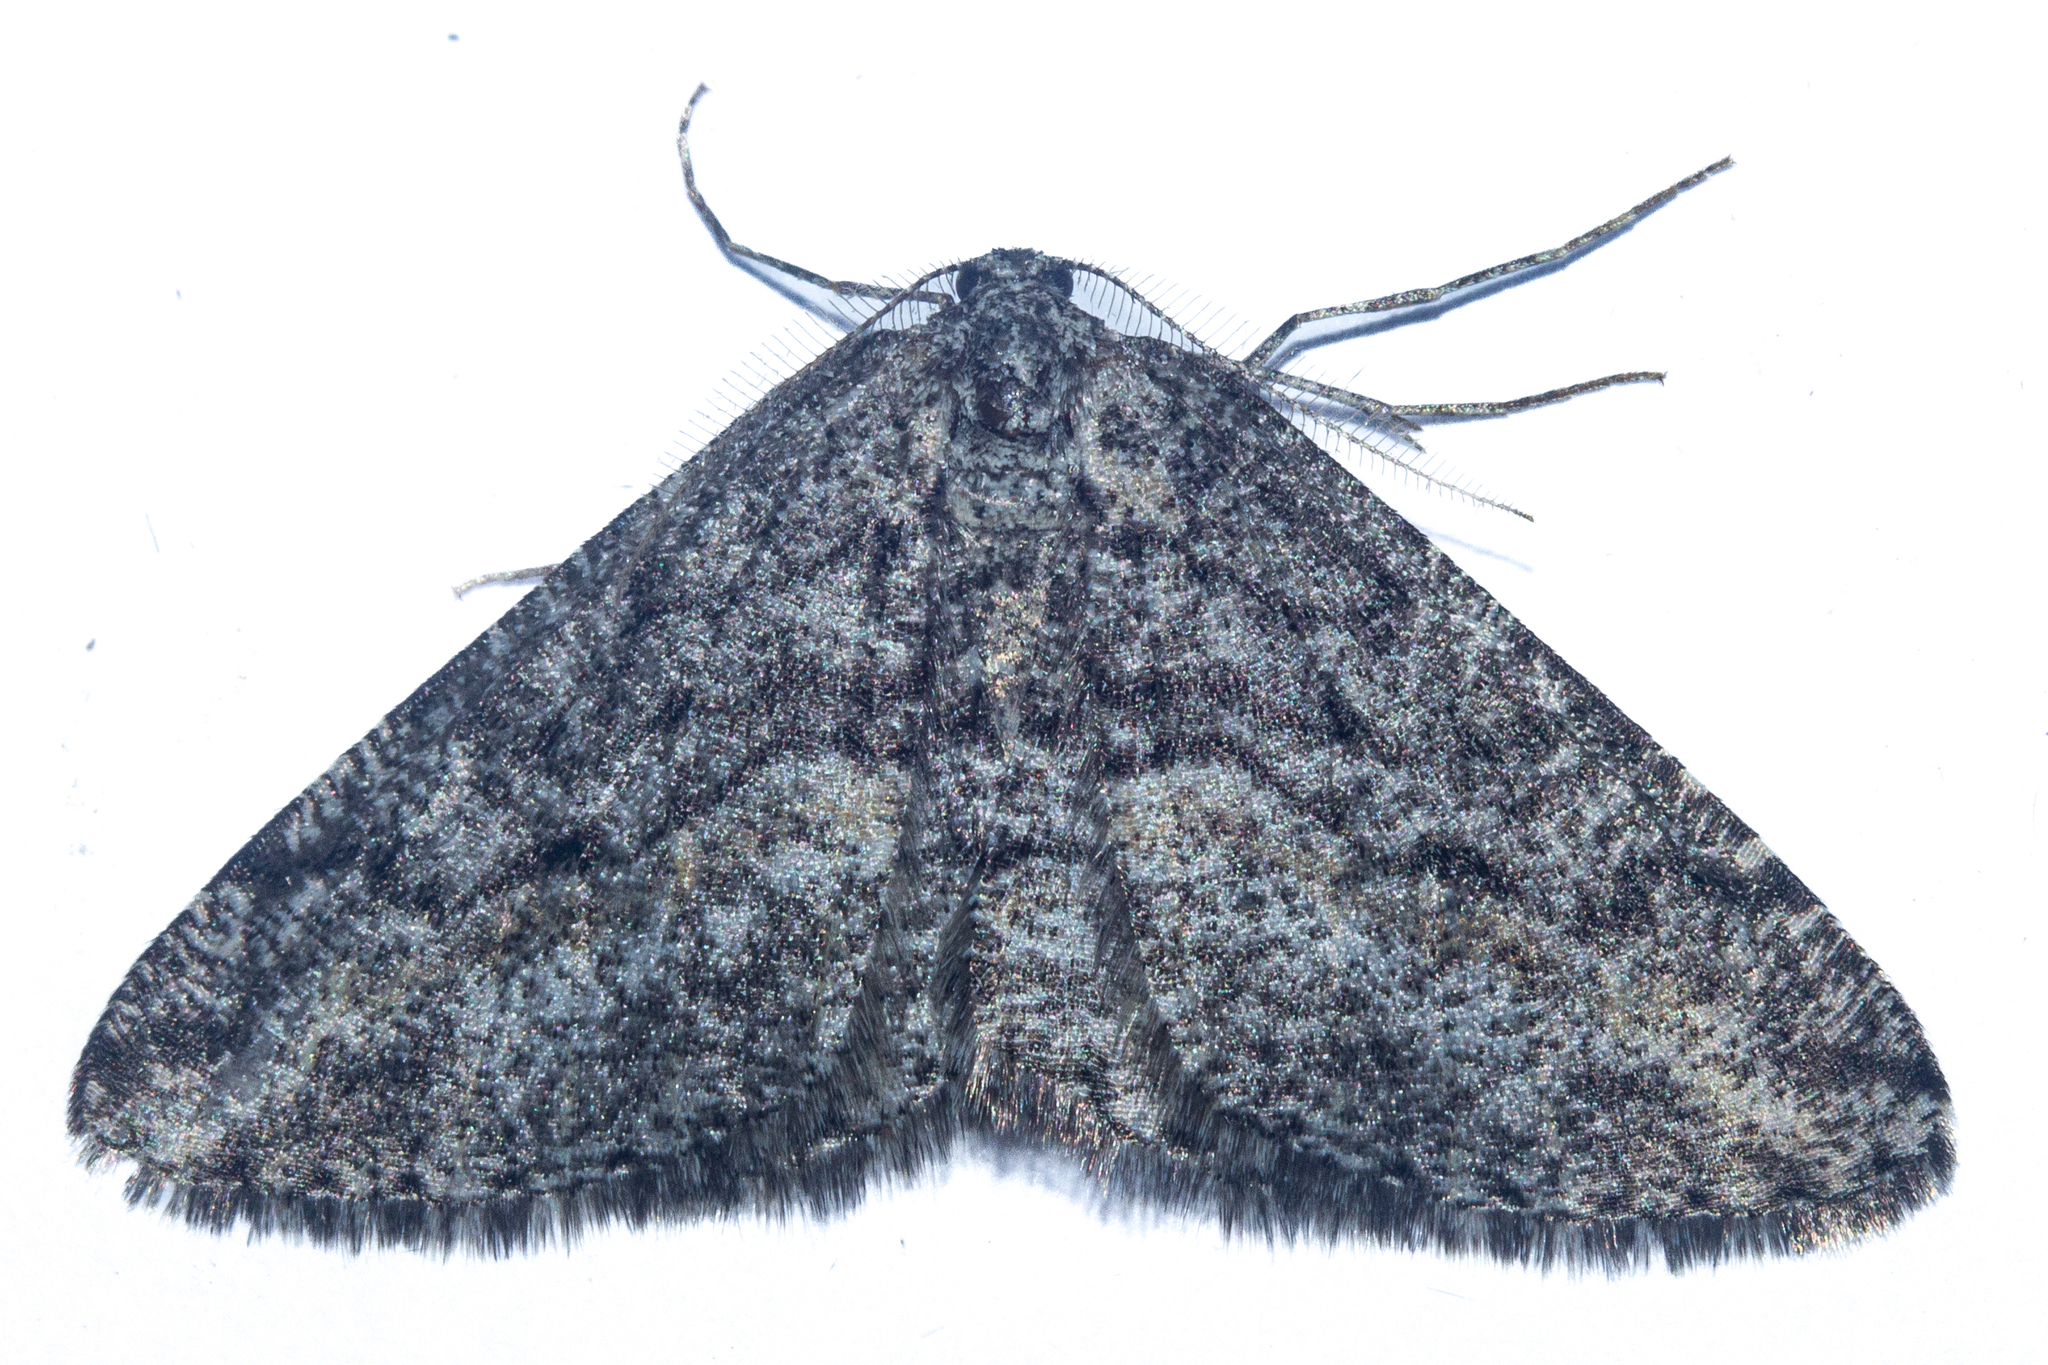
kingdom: Animalia
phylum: Arthropoda
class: Insecta
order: Lepidoptera
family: Geometridae
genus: Zermizinga
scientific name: Zermizinga indocilisaria
